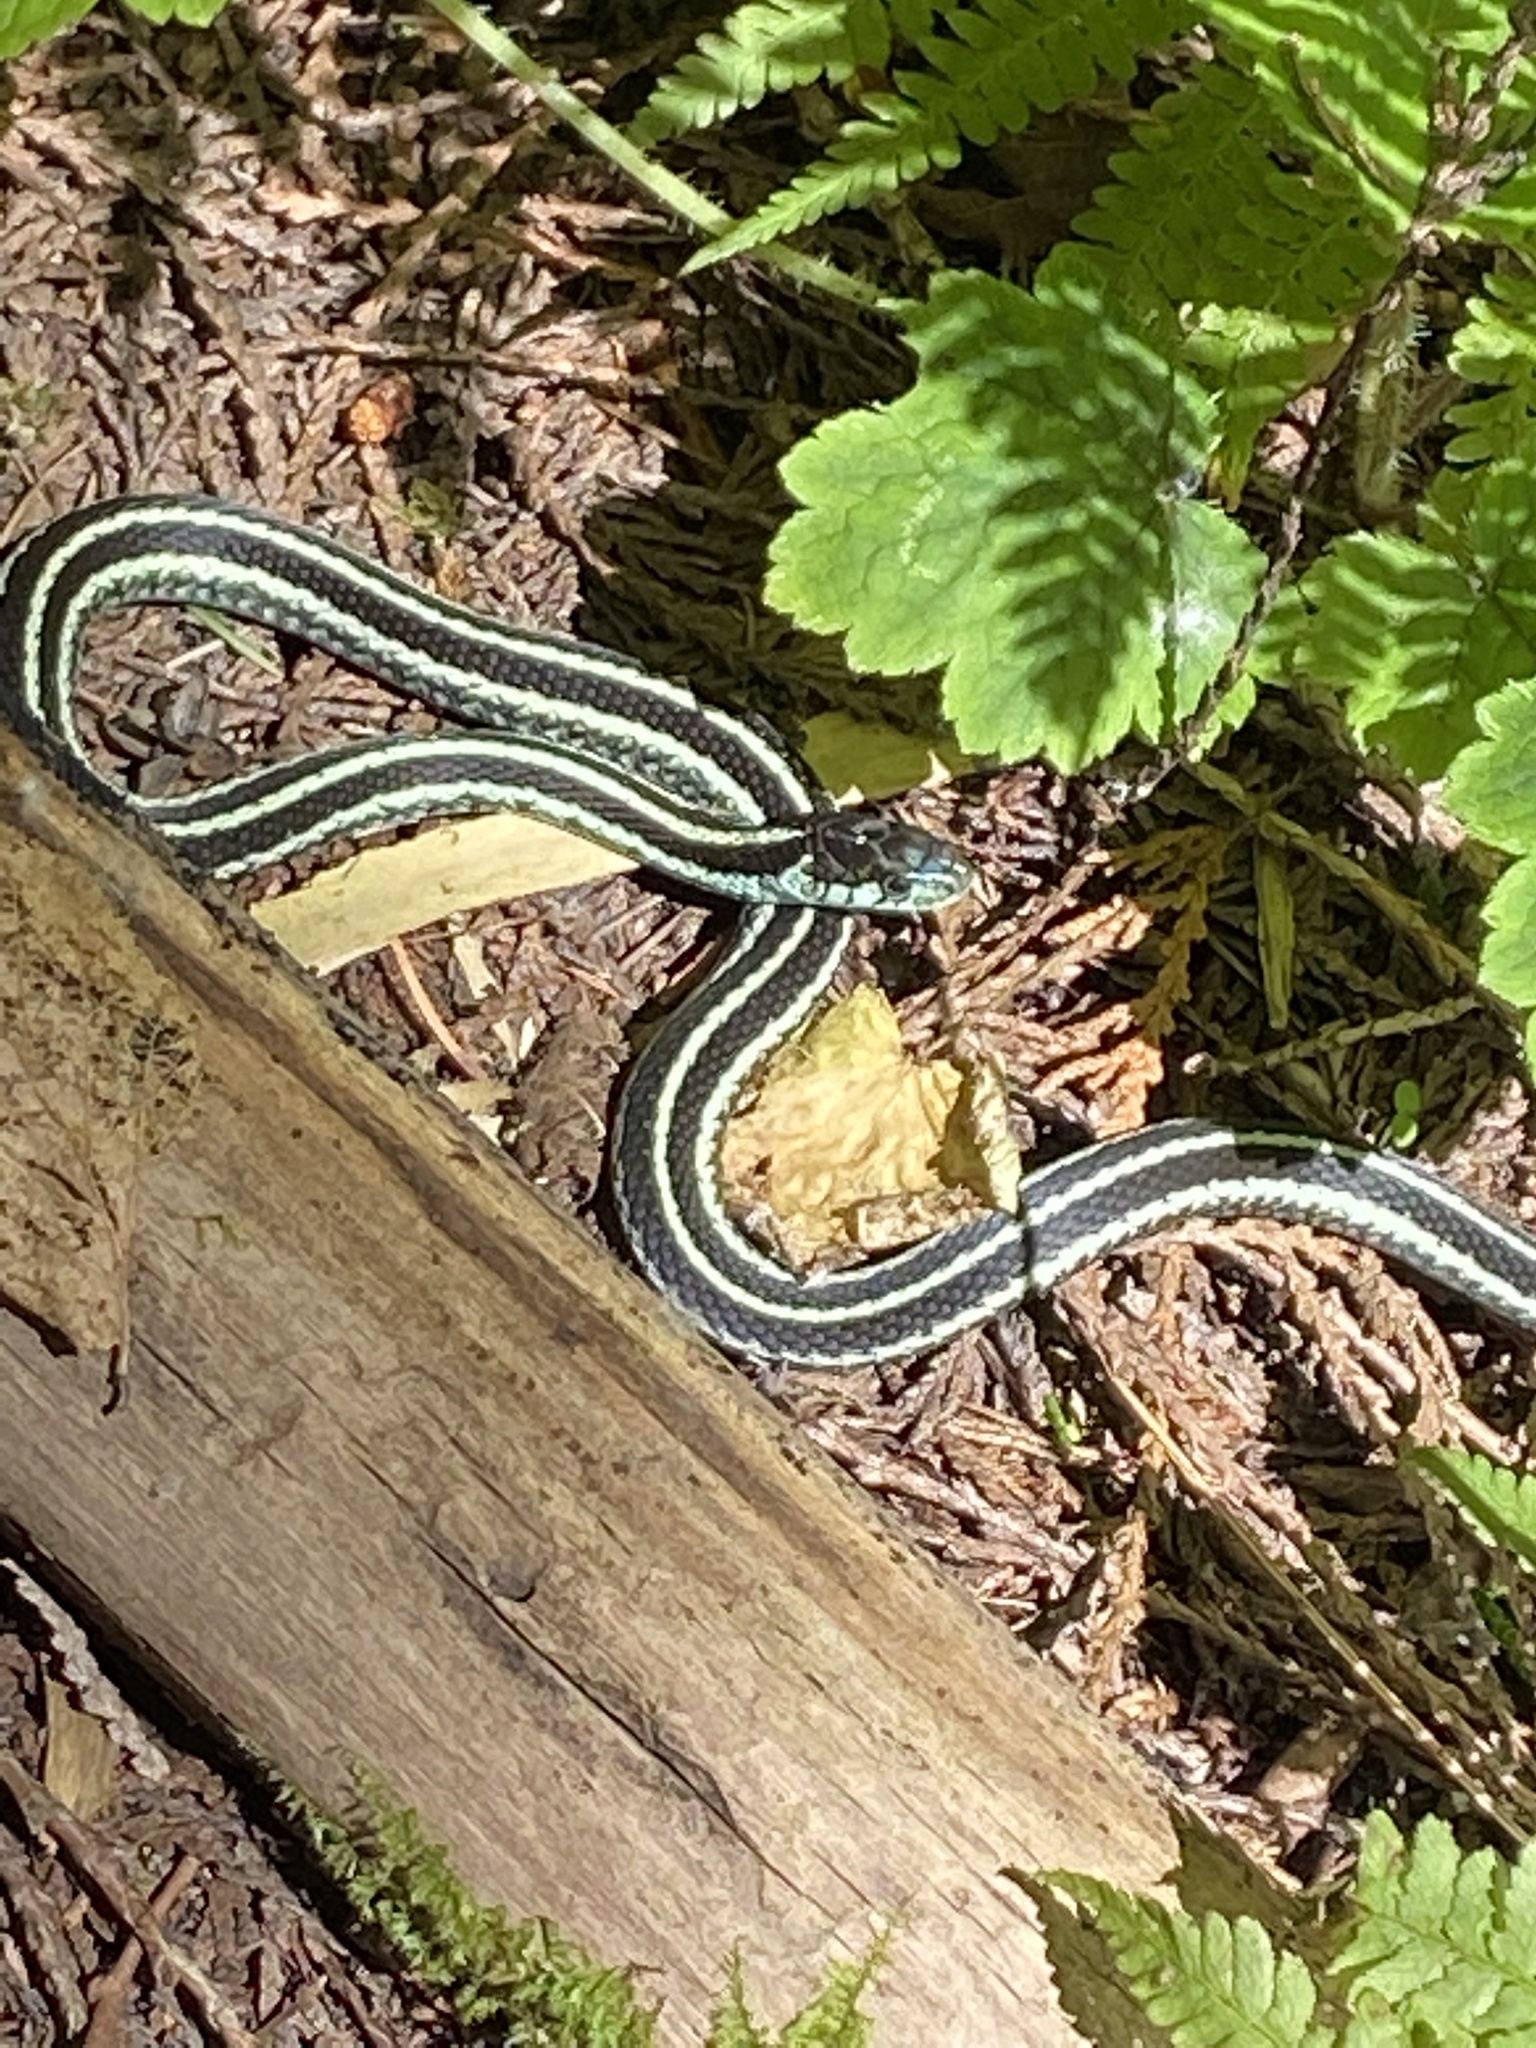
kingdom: Animalia
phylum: Chordata
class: Squamata
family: Colubridae
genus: Thamnophis
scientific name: Thamnophis sirtalis
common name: Common garter snake
